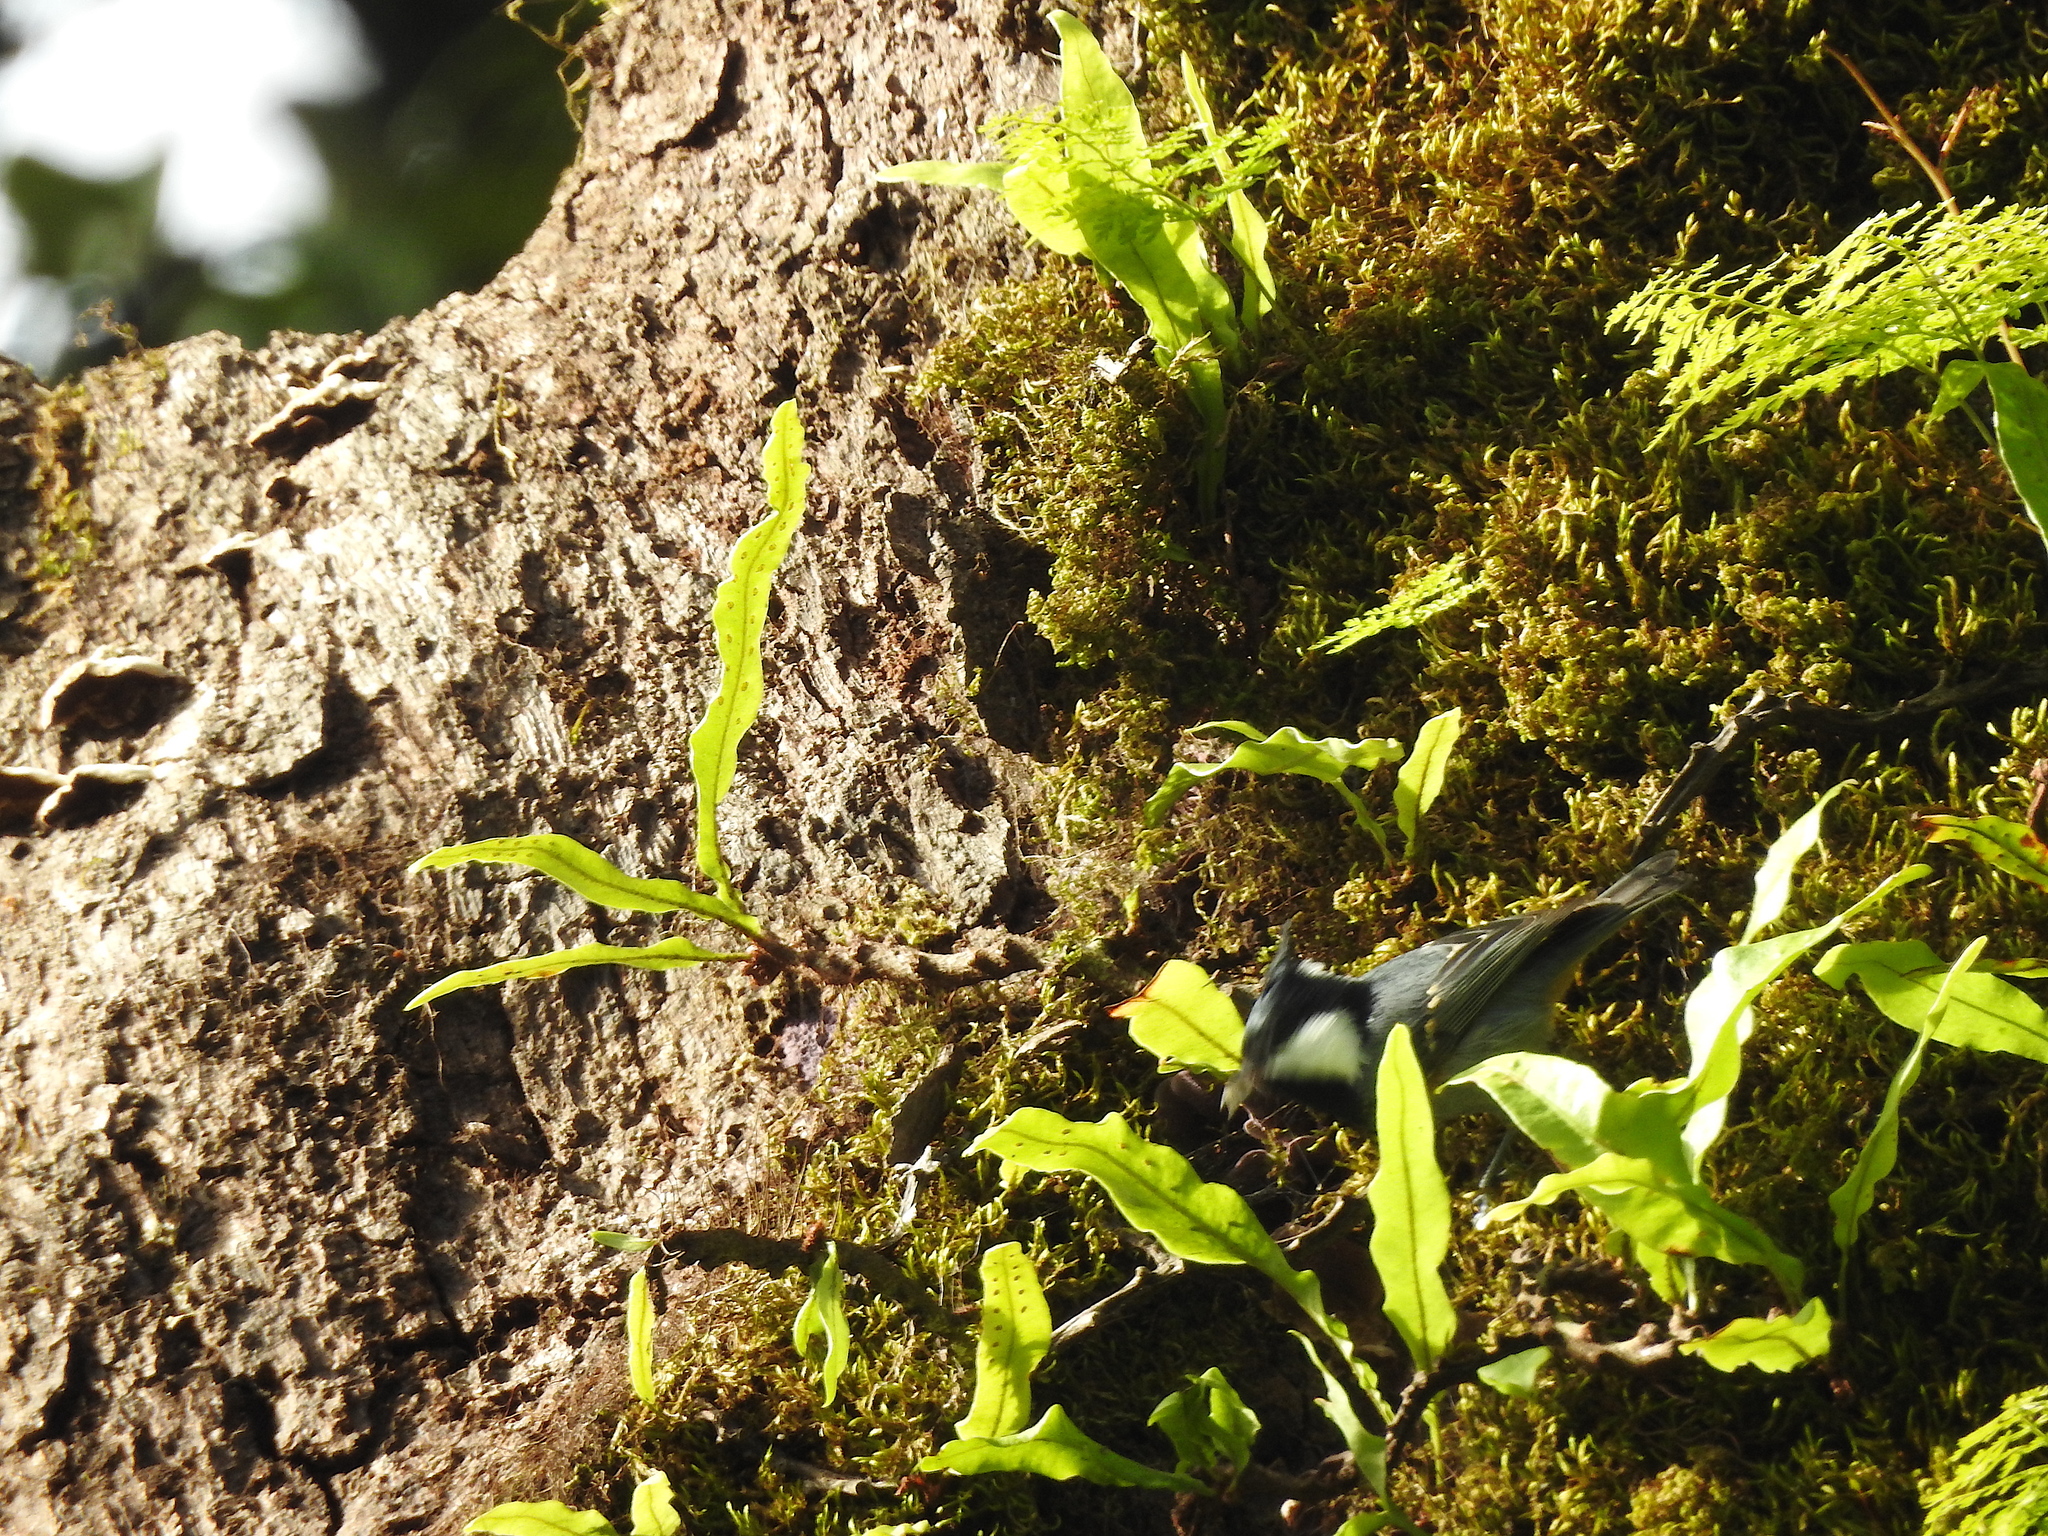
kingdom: Animalia
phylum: Chordata
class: Aves
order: Passeriformes
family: Paridae
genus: Periparus
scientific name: Periparus ater
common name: Coal tit
